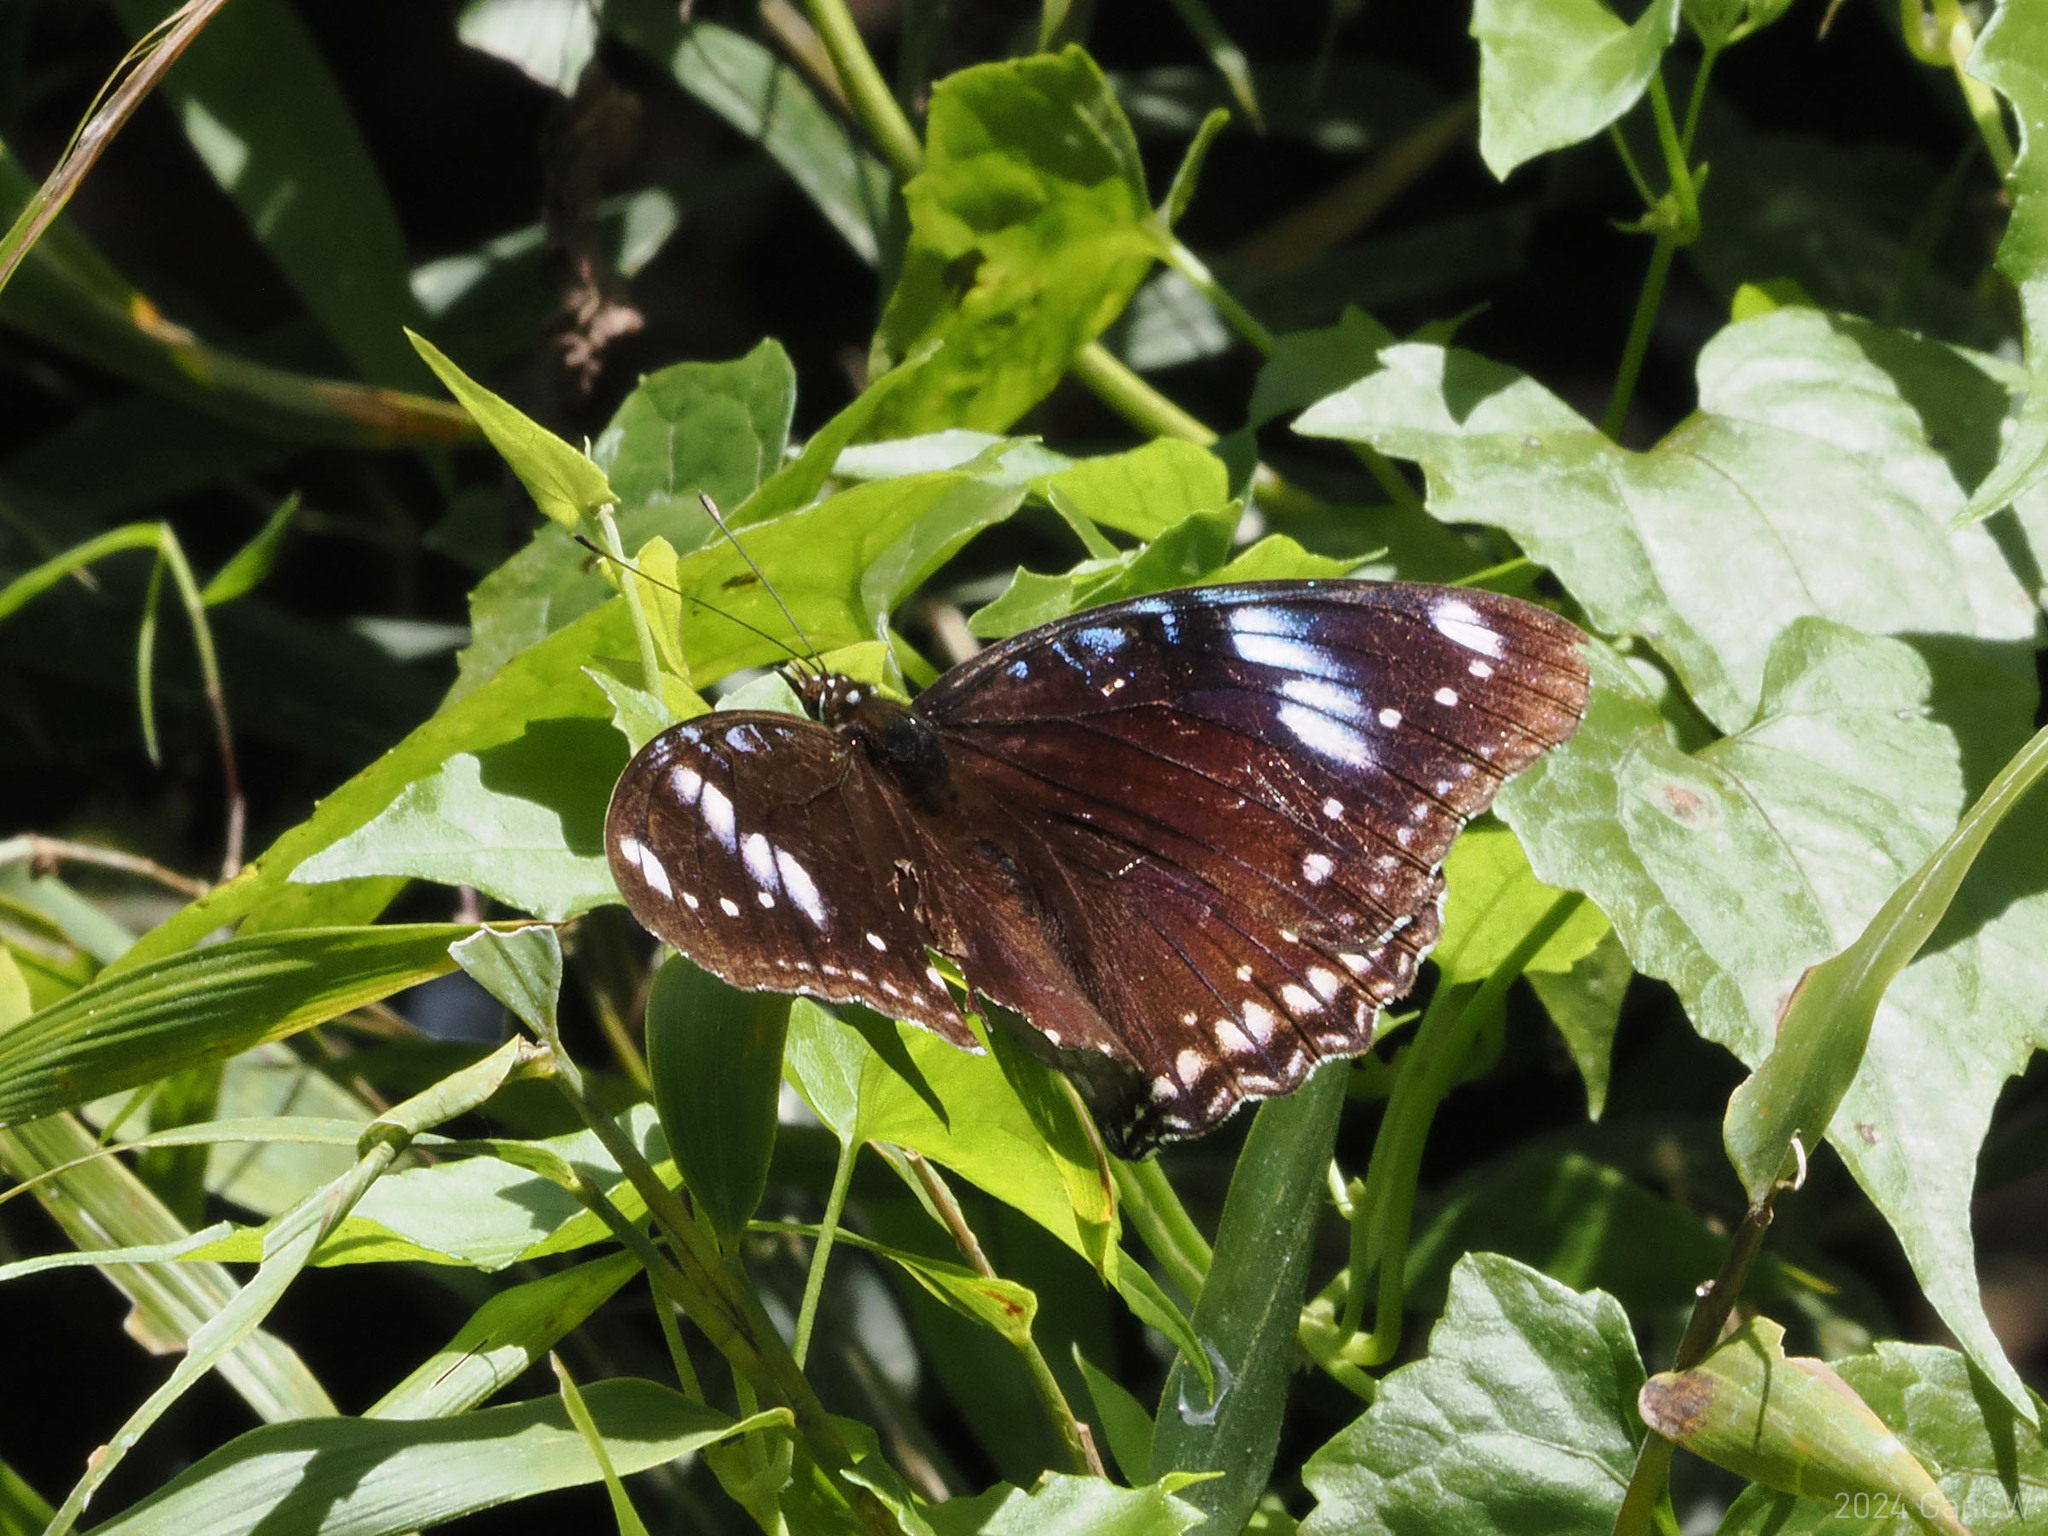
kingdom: Animalia
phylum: Arthropoda
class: Insecta
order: Lepidoptera
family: Nymphalidae
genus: Hypolimnas
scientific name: Hypolimnas bolina
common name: Great eggfly
